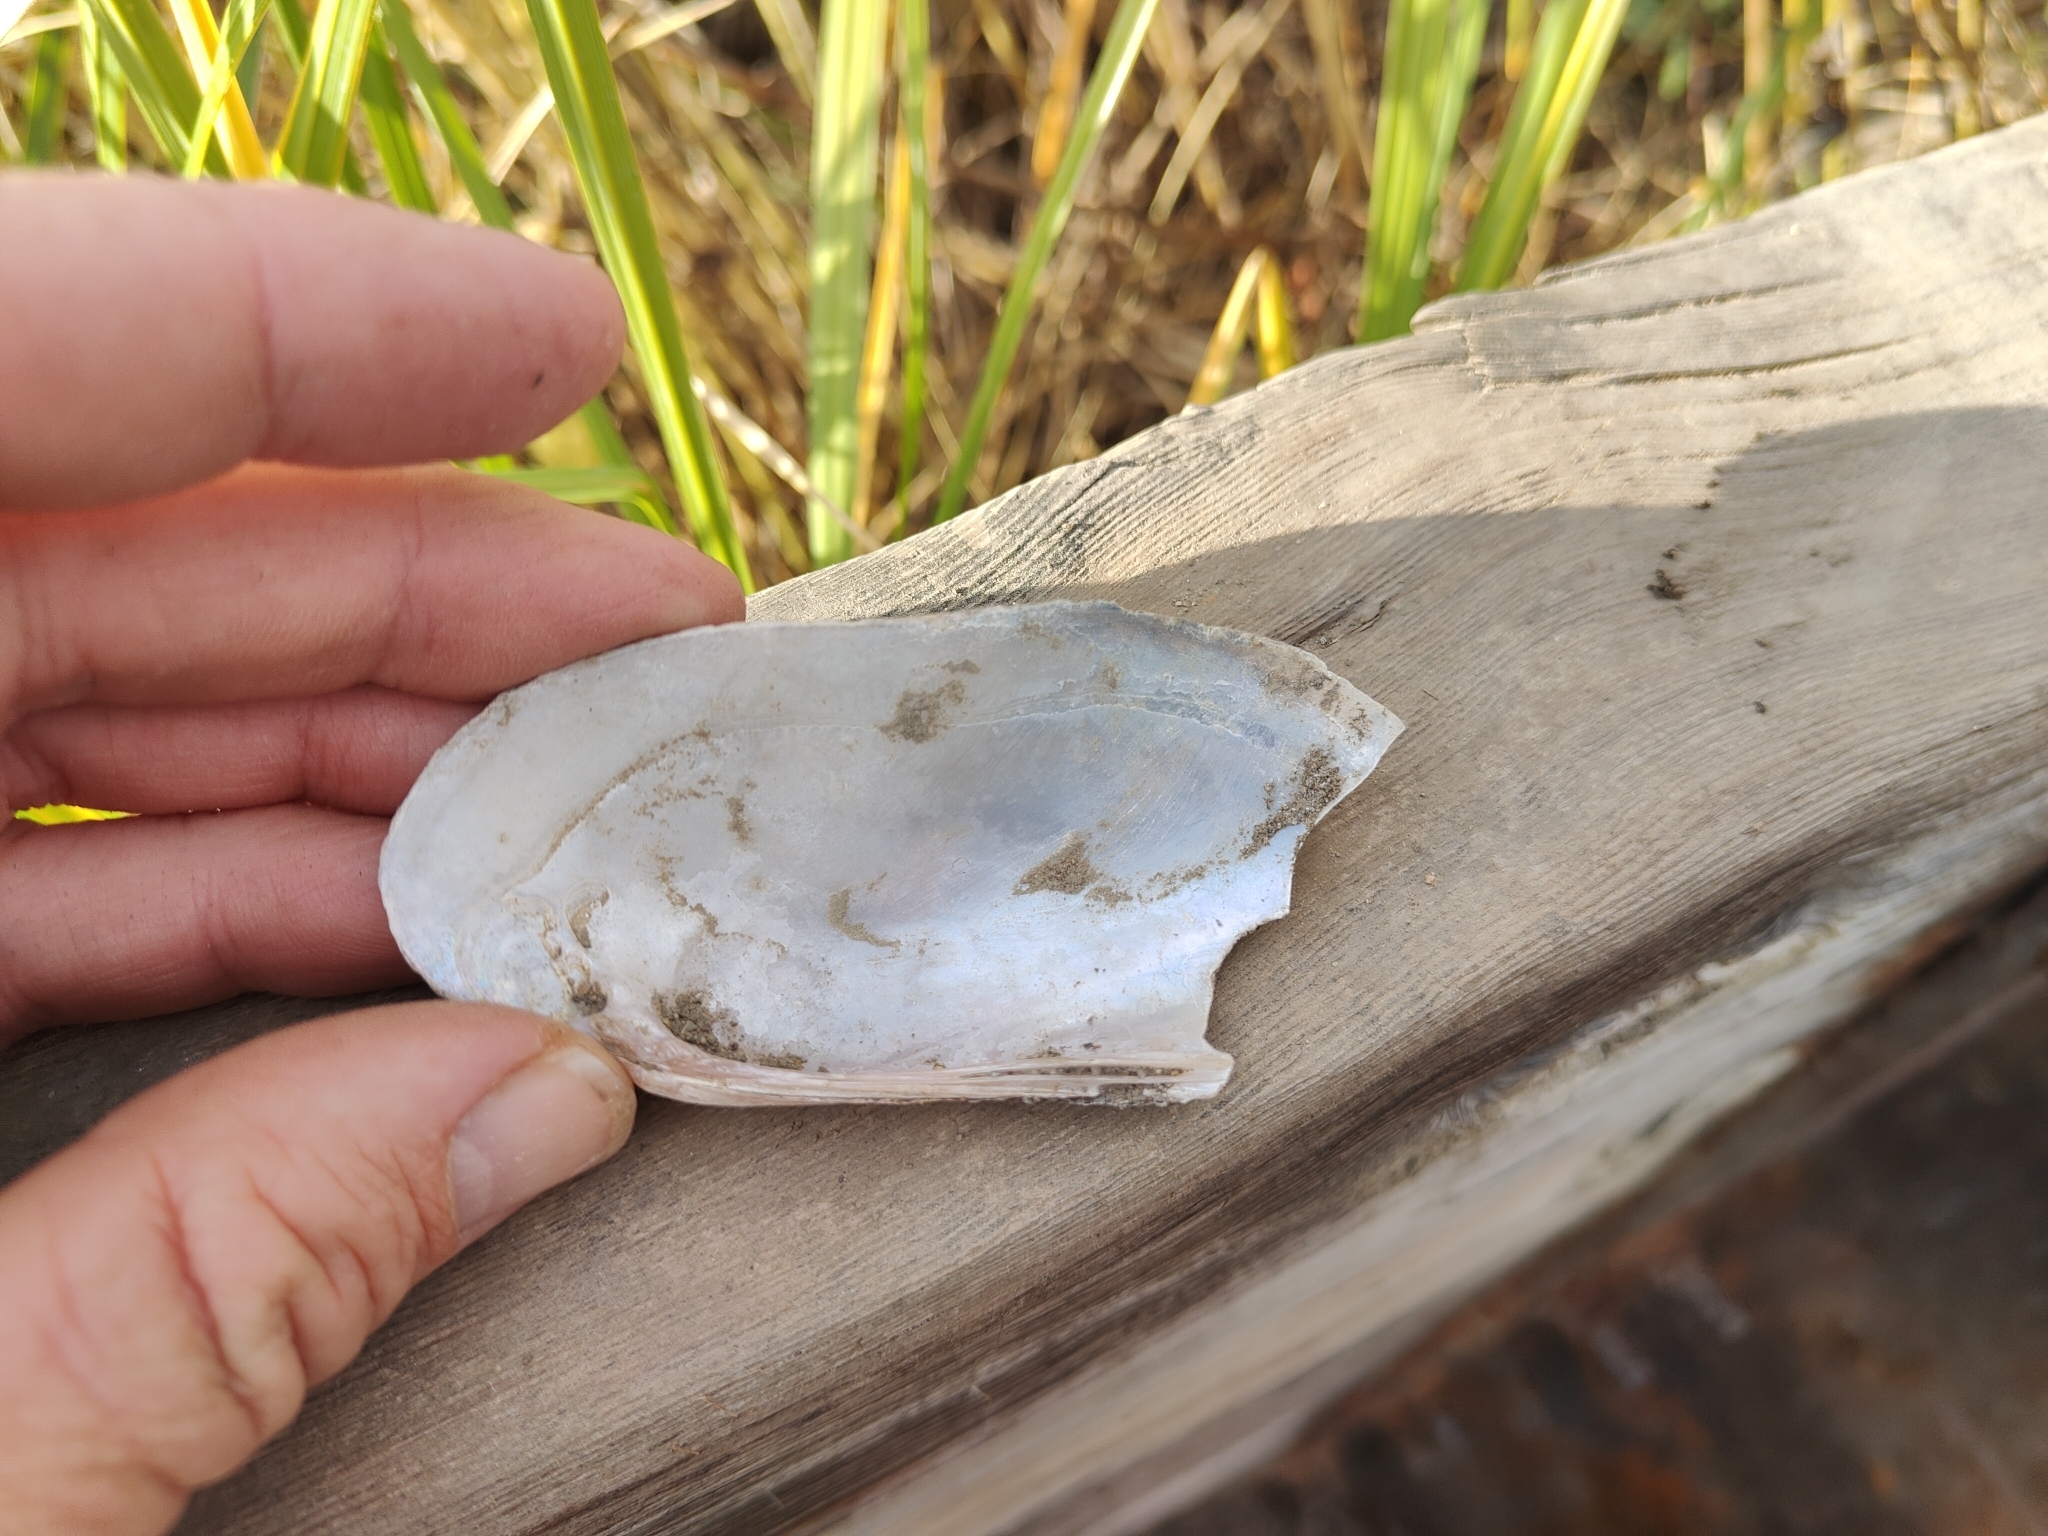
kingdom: Animalia
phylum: Mollusca
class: Bivalvia
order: Unionida
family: Unionidae
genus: Lampsilis
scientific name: Lampsilis teres
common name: Yellow sandshell
